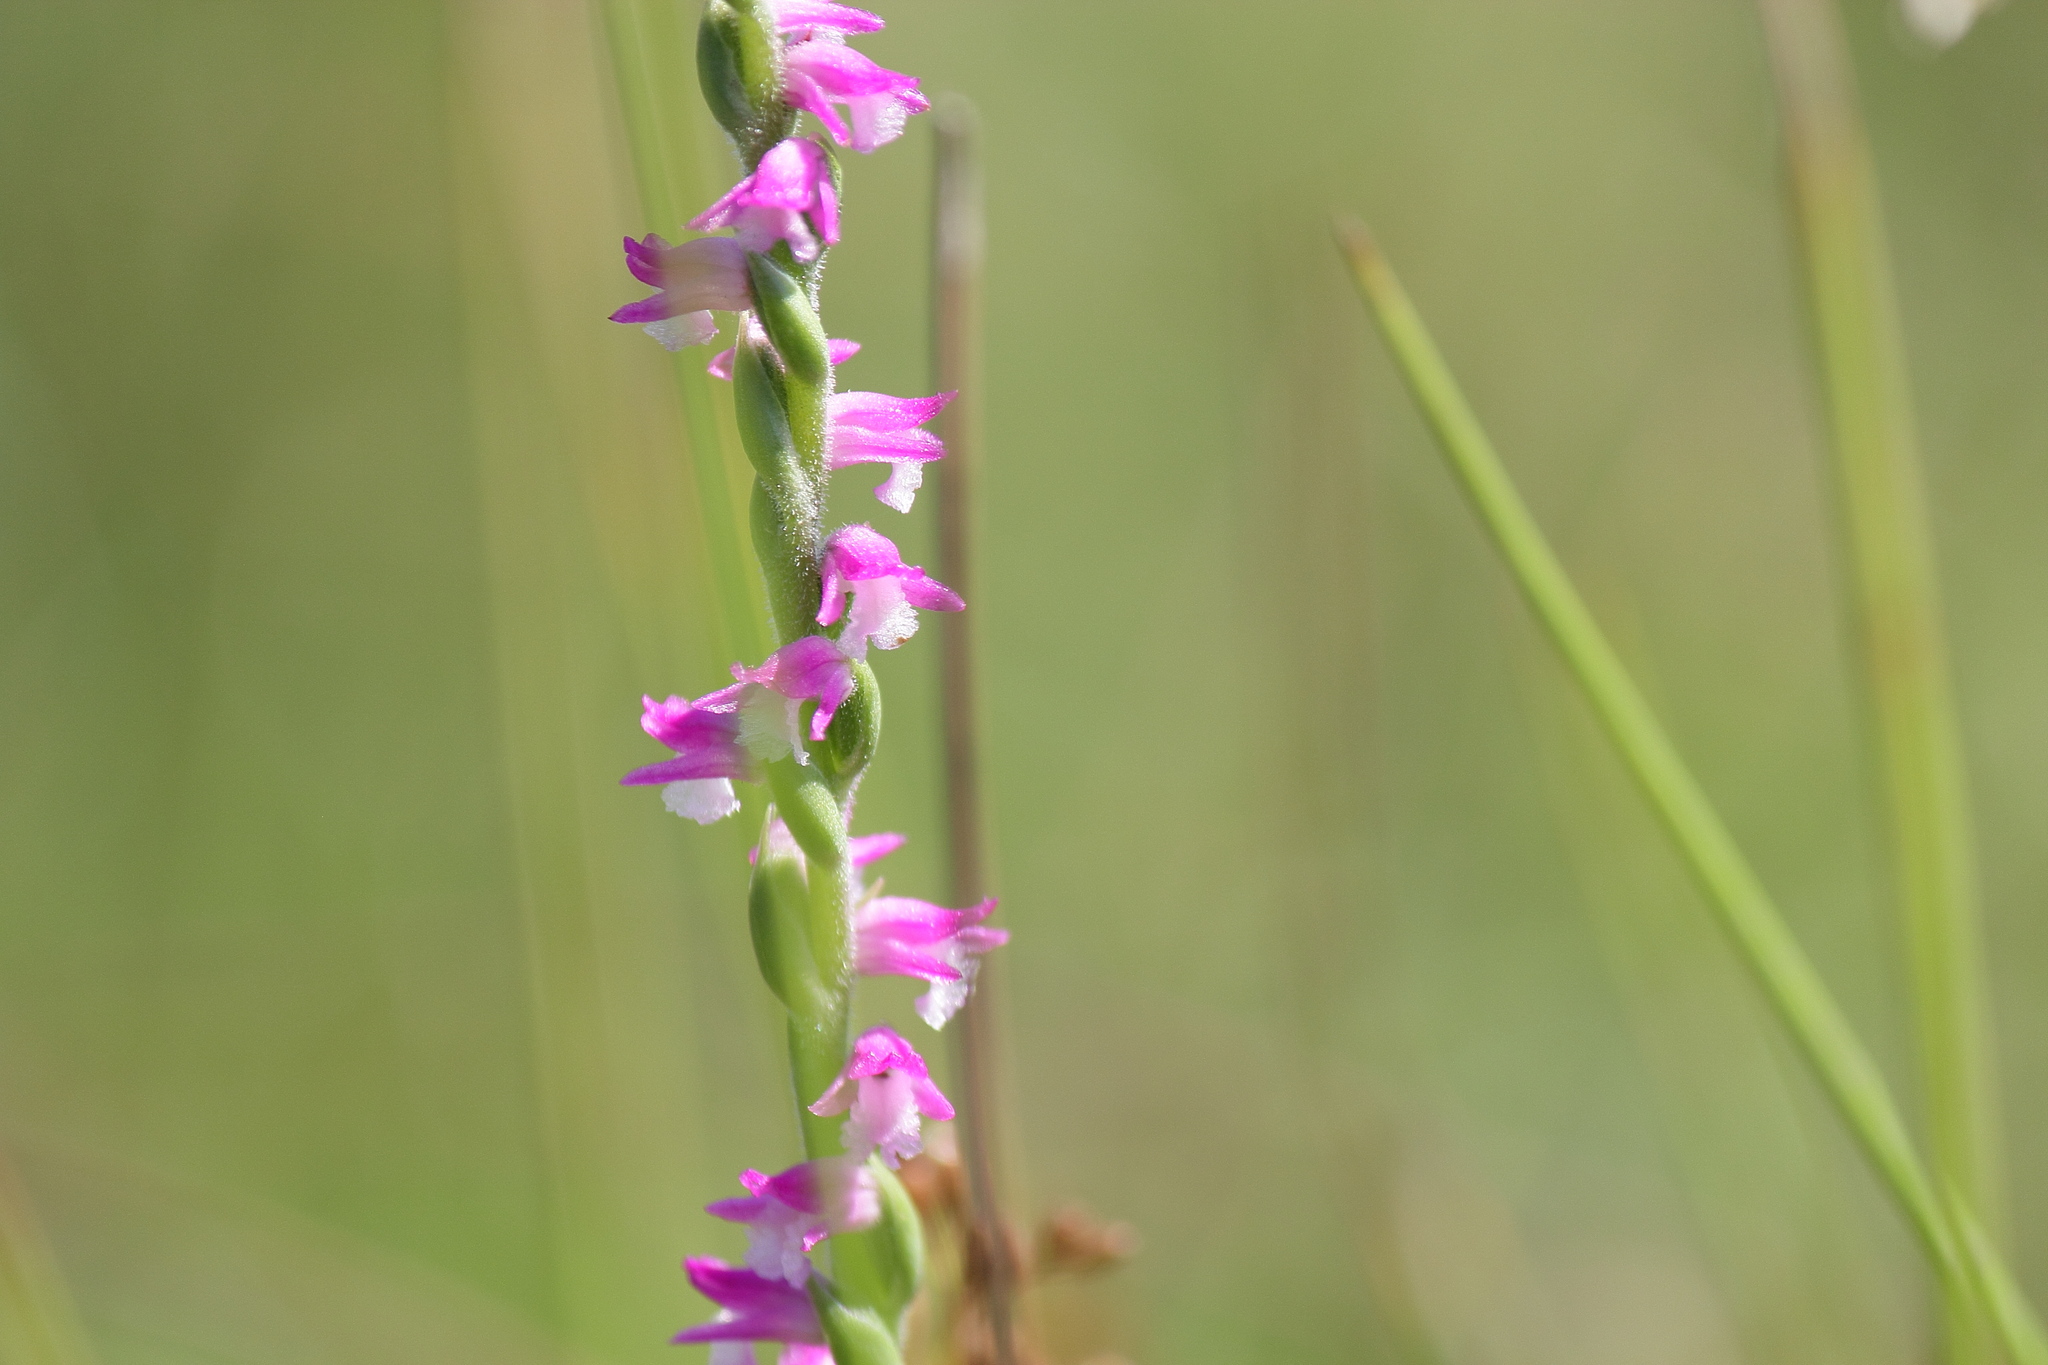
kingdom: Plantae
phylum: Tracheophyta
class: Liliopsida
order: Asparagales
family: Orchidaceae
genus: Spiranthes
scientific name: Spiranthes australis
